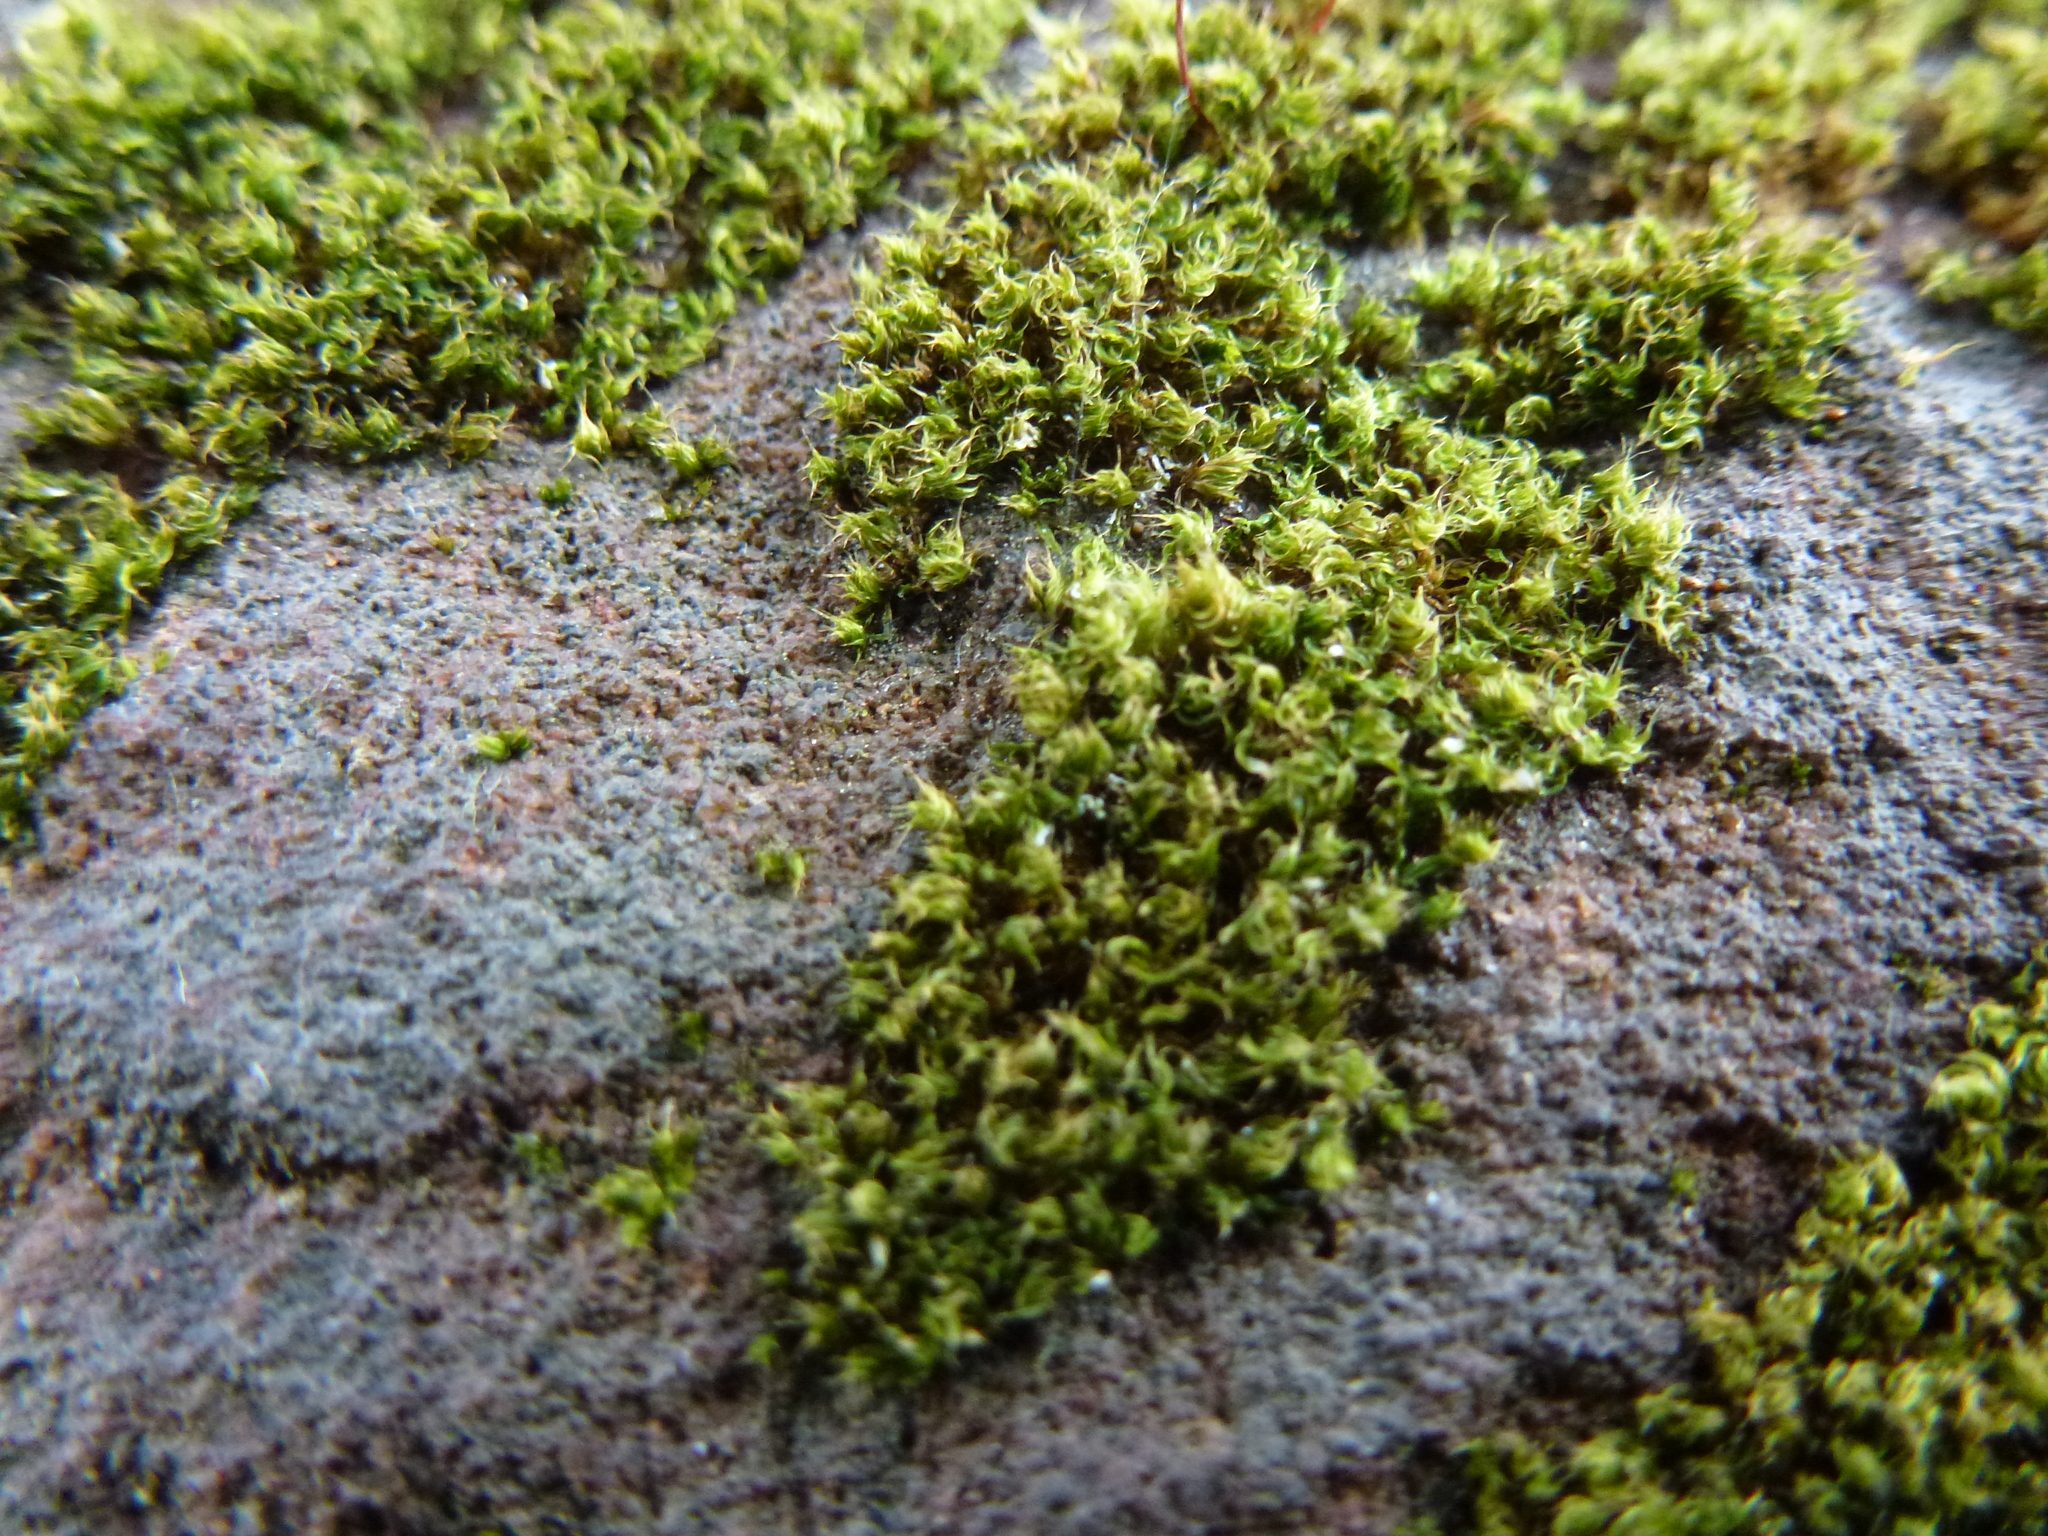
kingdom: Plantae
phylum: Bryophyta
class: Bryopsida
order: Bryales
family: Bryaceae
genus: Rosulabryum
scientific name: Rosulabryum capillare
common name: Capillary thread-moss
